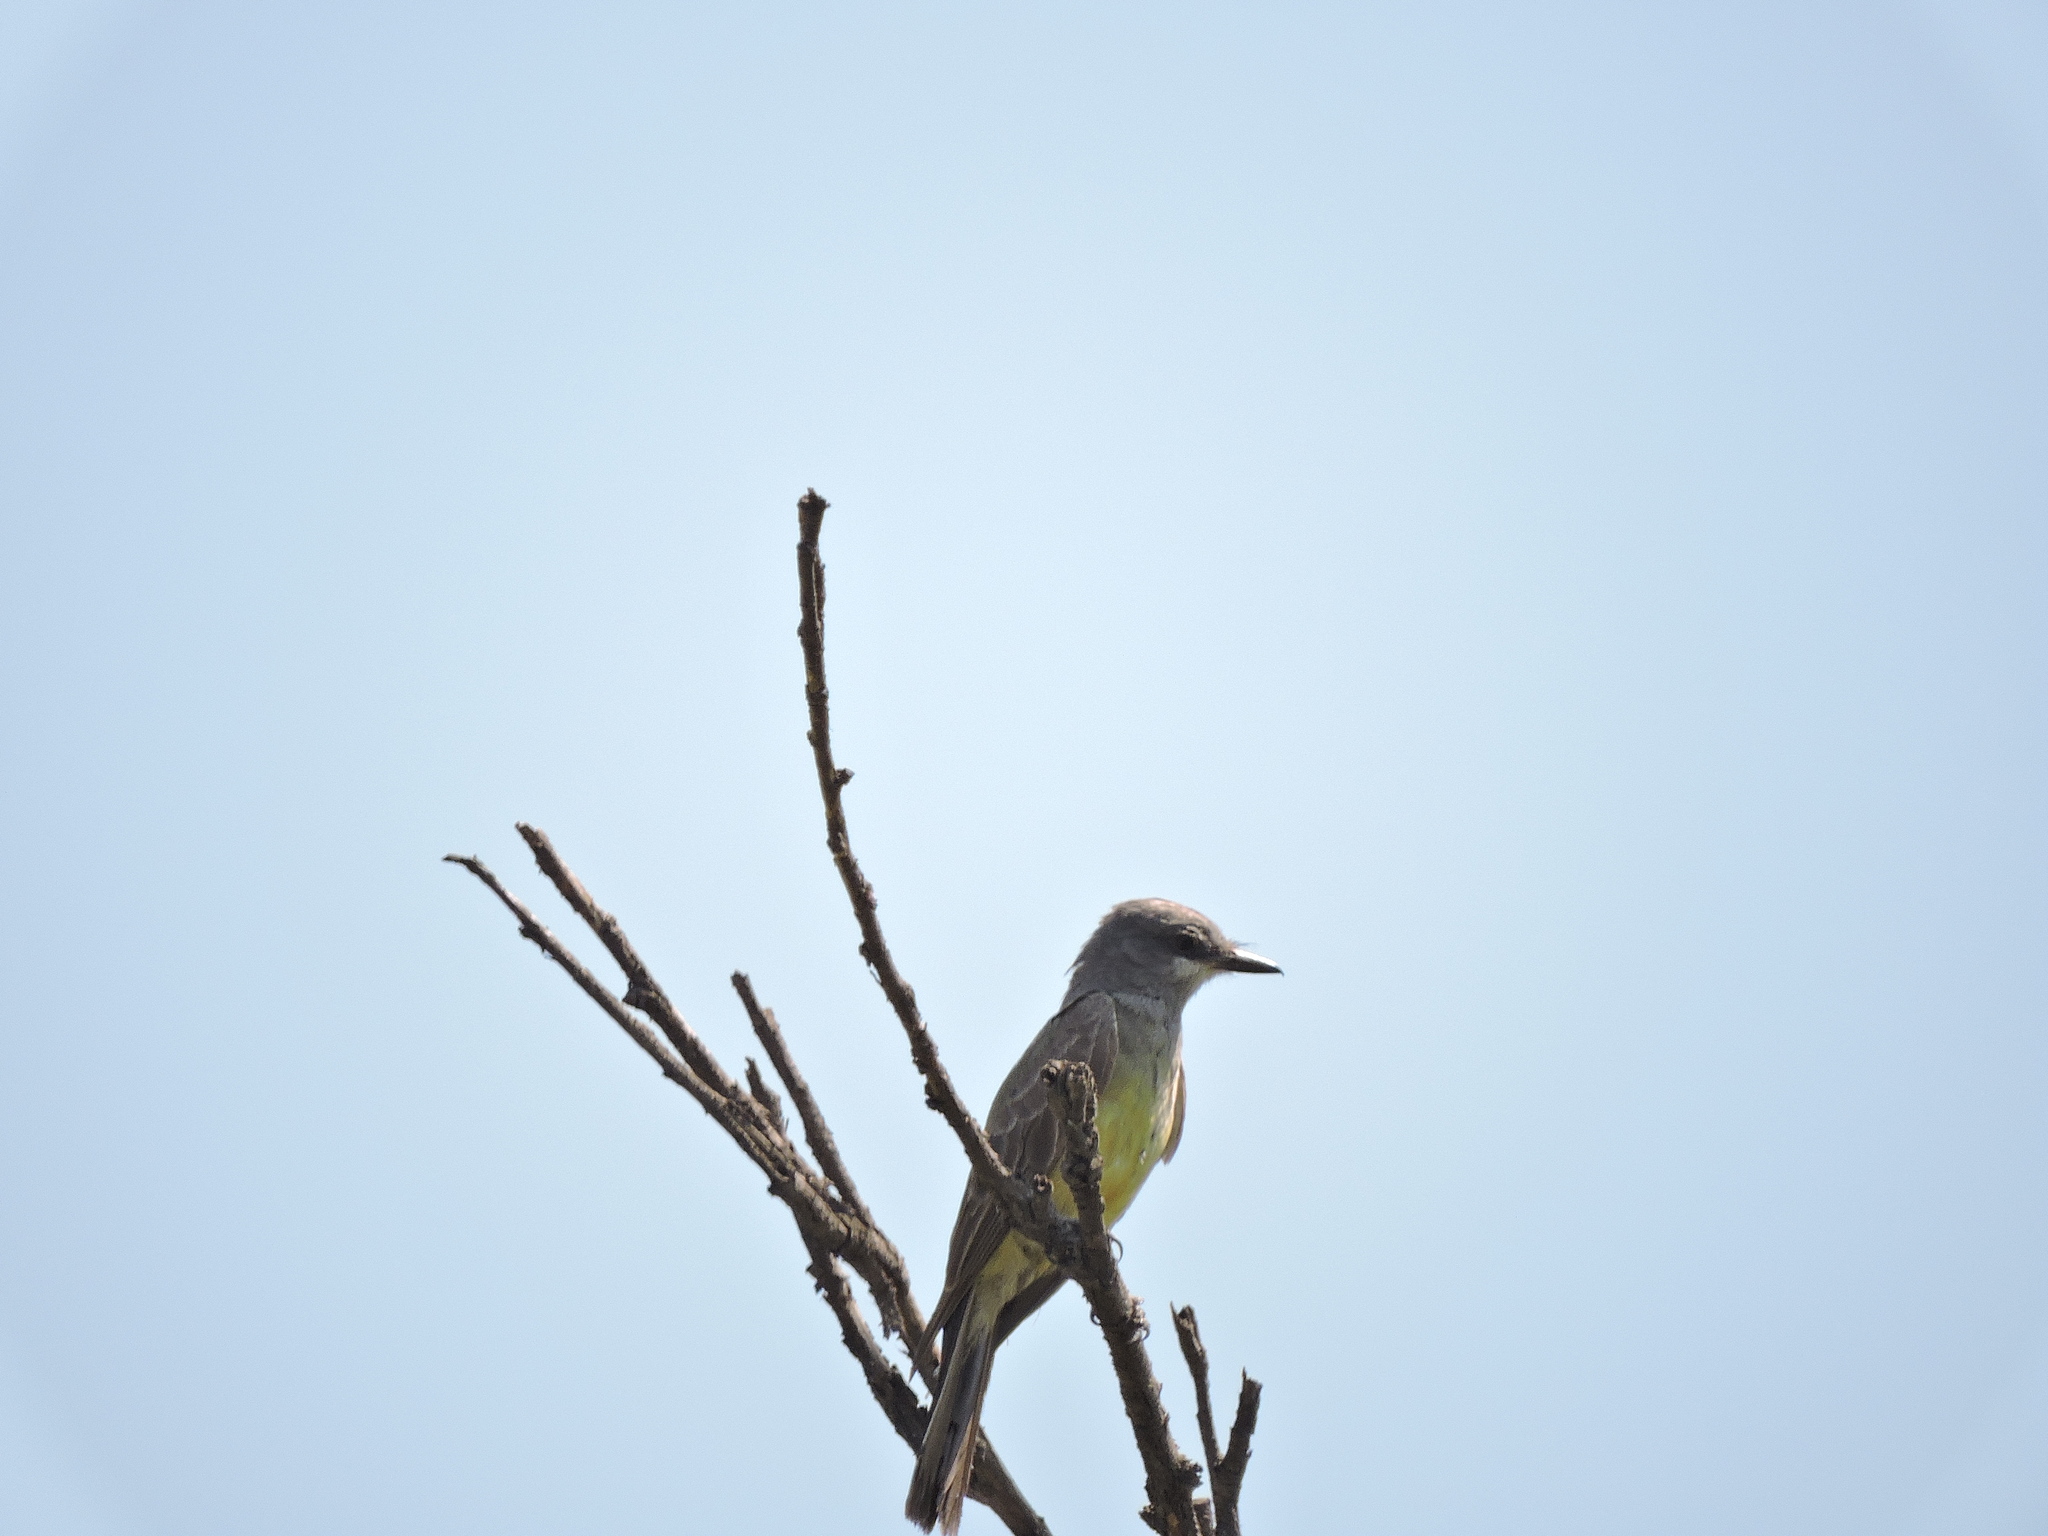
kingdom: Animalia
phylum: Chordata
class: Aves
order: Passeriformes
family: Tyrannidae
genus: Tyrannus
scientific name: Tyrannus vociferans
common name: Cassin's kingbird
